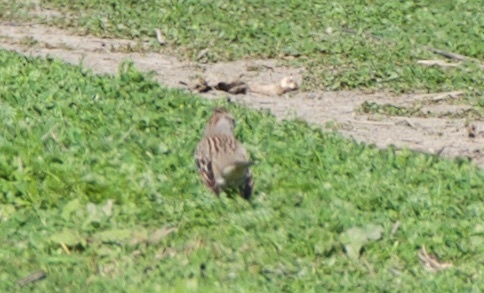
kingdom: Animalia
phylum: Chordata
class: Aves
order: Passeriformes
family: Passerellidae
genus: Zonotrichia
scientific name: Zonotrichia leucophrys
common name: White-crowned sparrow
